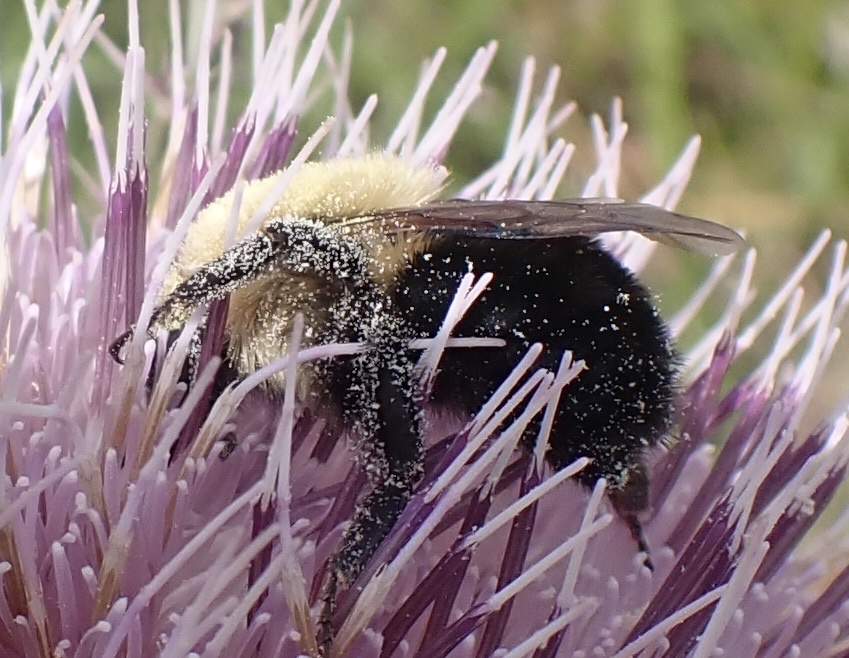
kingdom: Animalia
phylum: Arthropoda
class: Insecta
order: Hymenoptera
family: Apidae
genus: Bombus
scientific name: Bombus bimaculatus
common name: Two-spotted bumble bee
